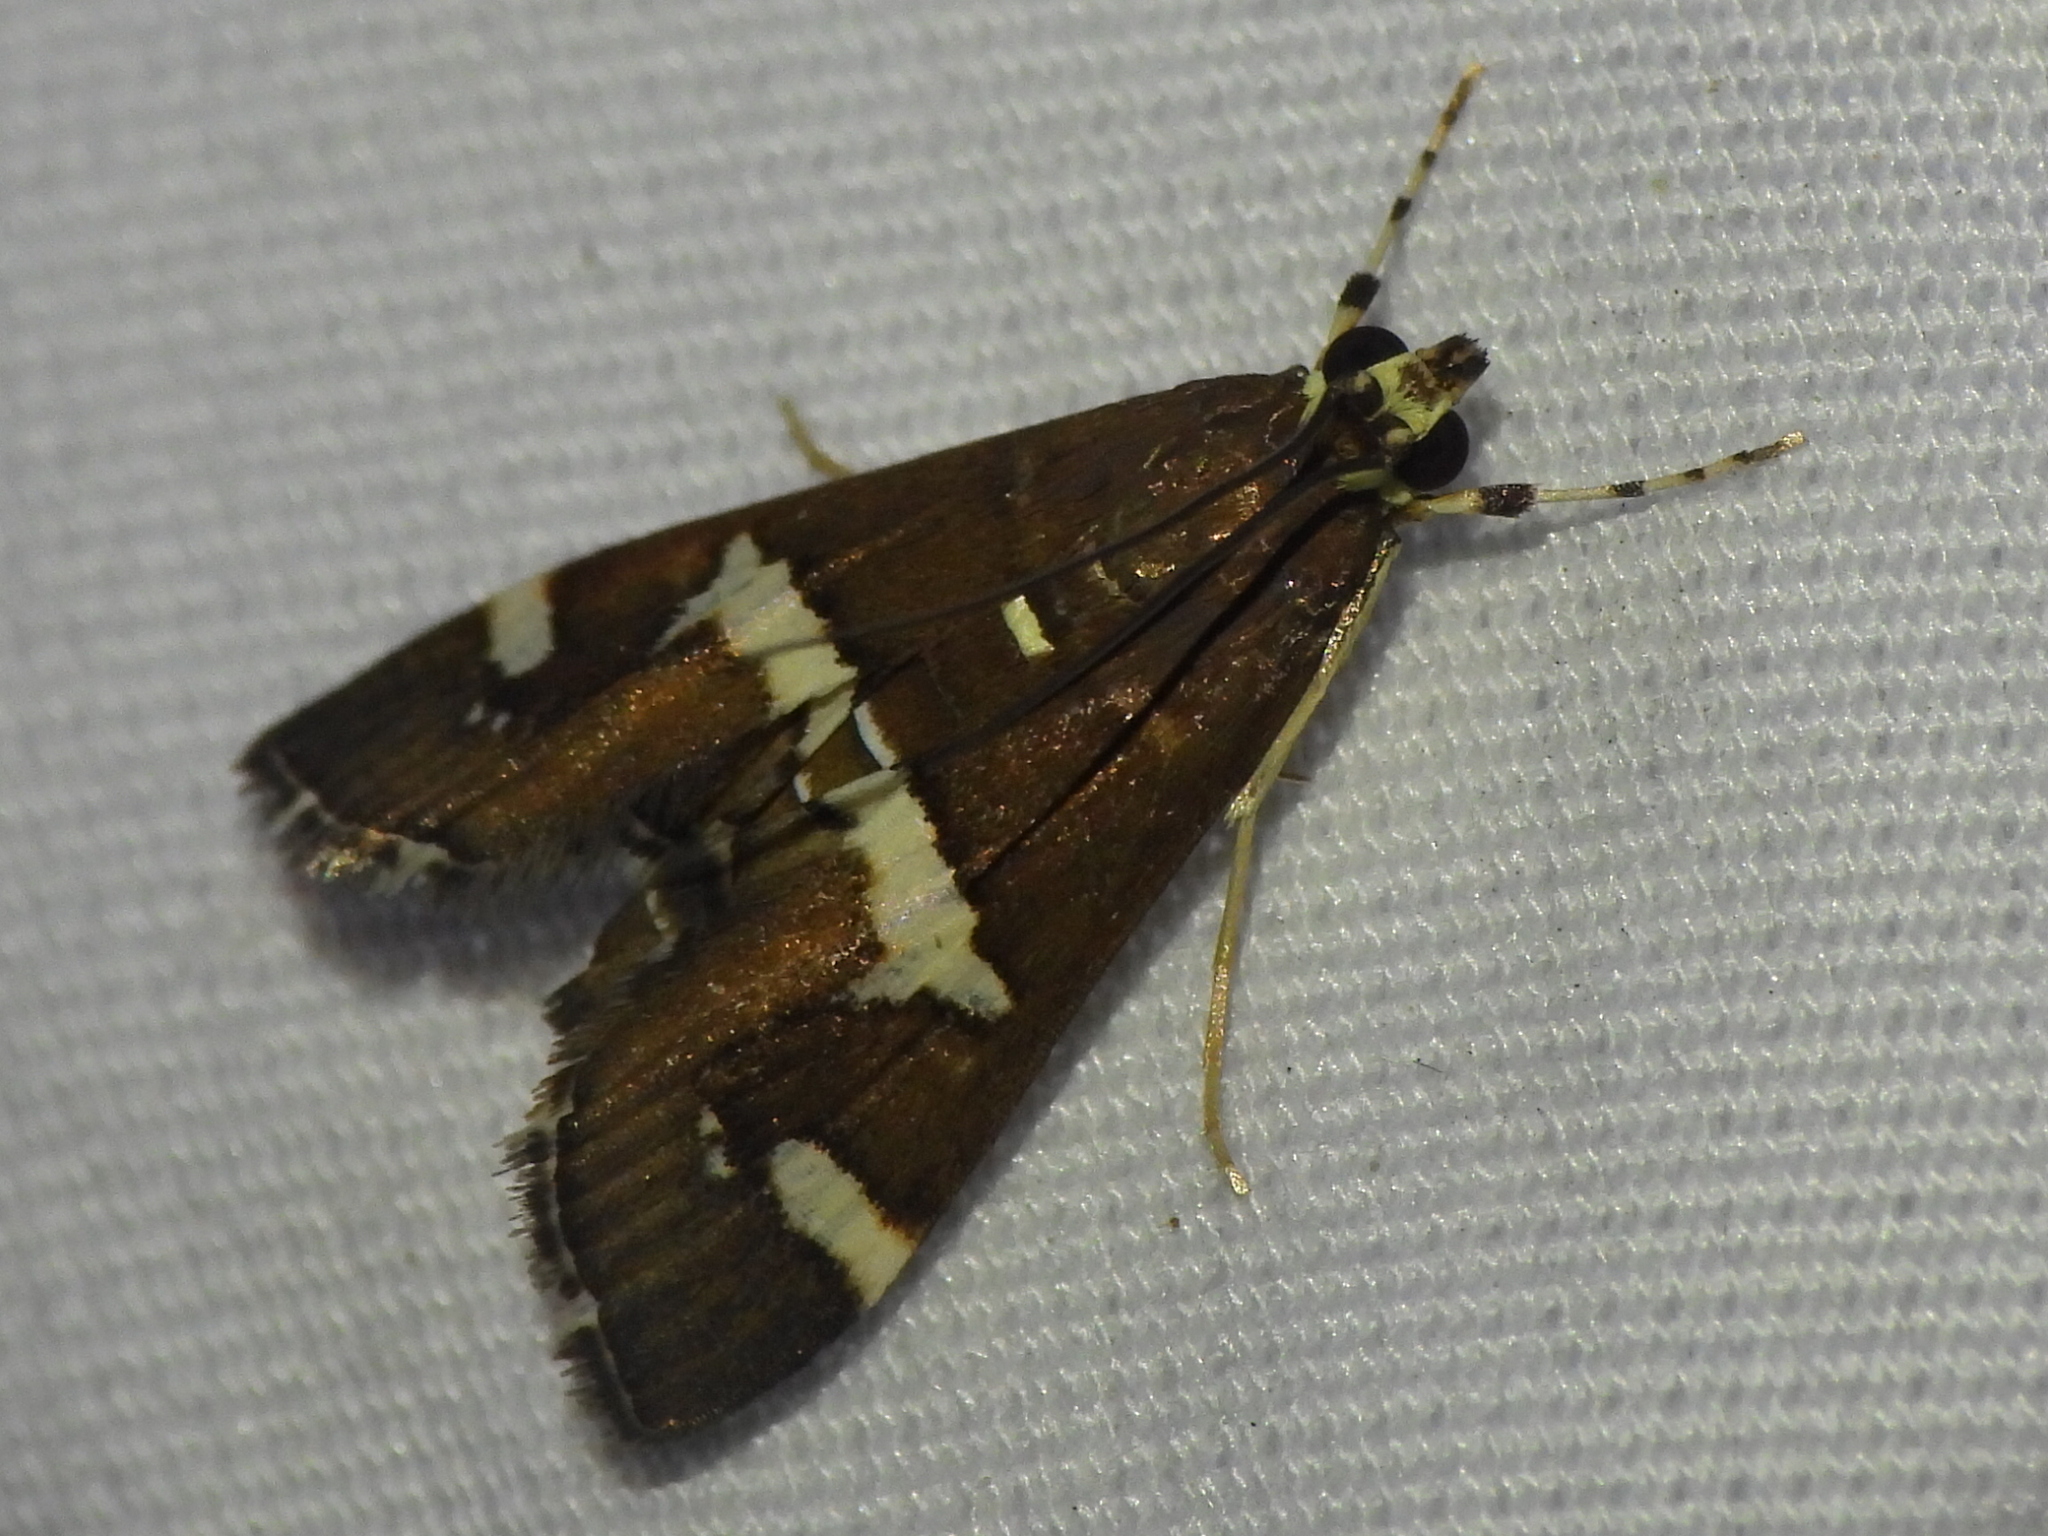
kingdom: Animalia
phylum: Arthropoda
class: Insecta
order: Lepidoptera
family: Crambidae
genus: Spoladea
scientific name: Spoladea recurvalis
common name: Beet webworm moth
